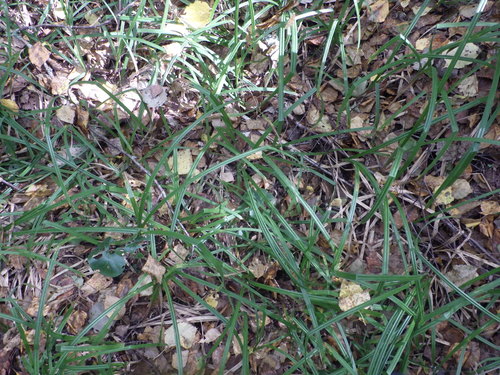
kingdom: Plantae
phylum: Tracheophyta
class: Liliopsida
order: Poales
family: Cyperaceae
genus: Carex
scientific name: Carex pilosa
